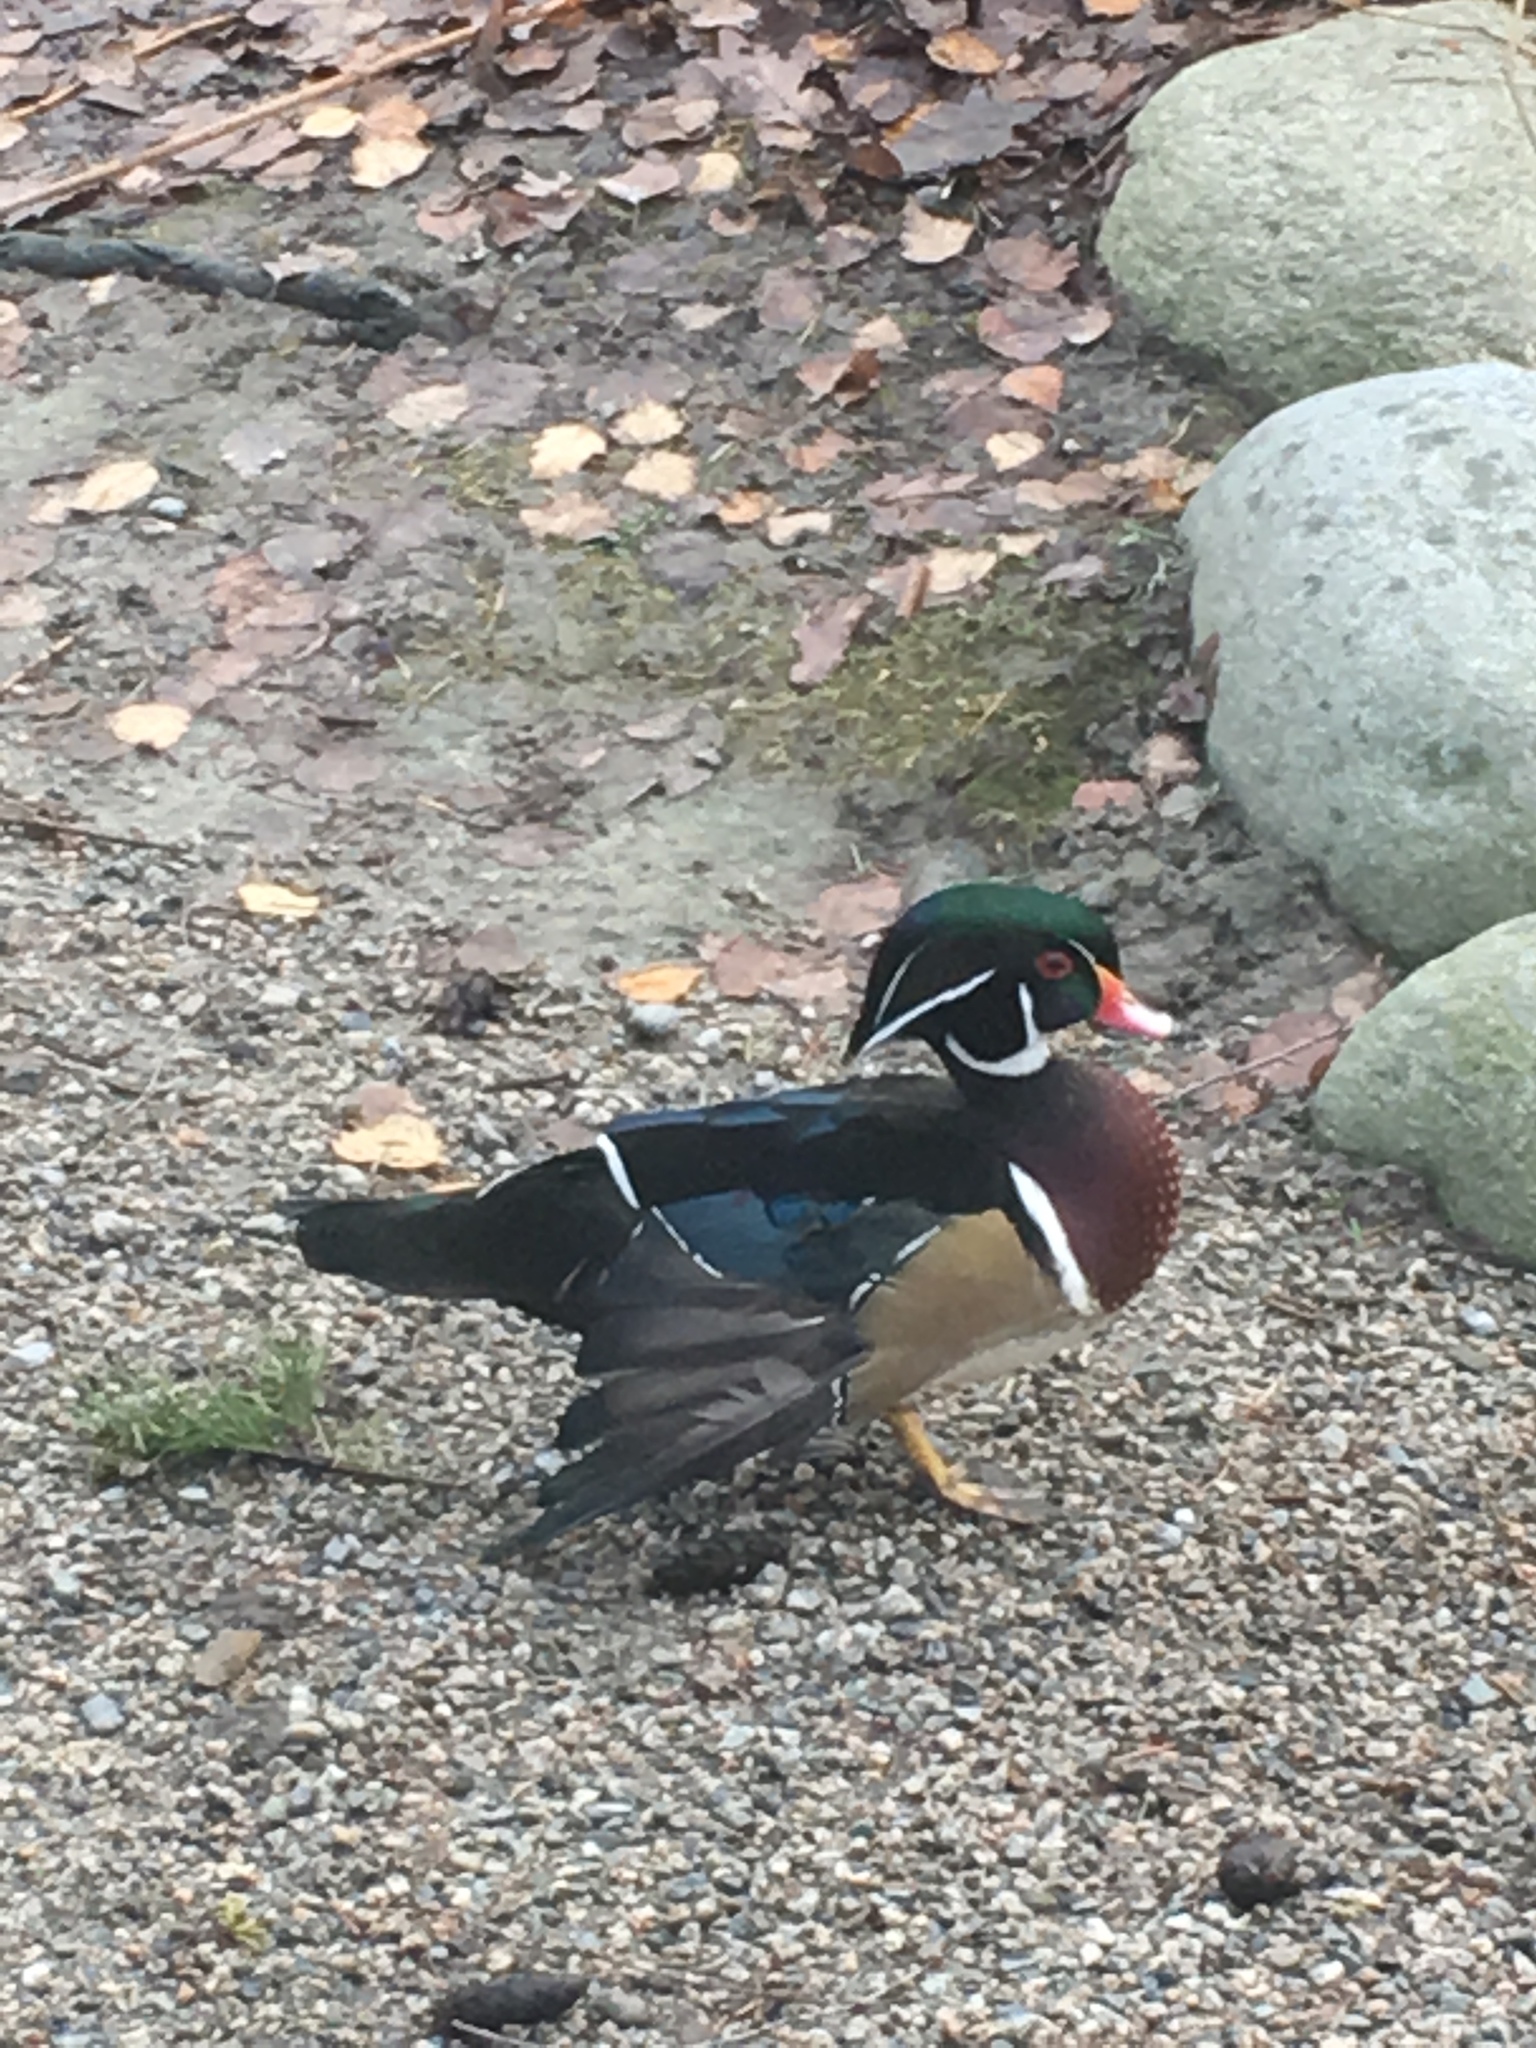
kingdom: Animalia
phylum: Chordata
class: Aves
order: Anseriformes
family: Anatidae
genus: Aix
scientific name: Aix sponsa
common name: Wood duck
